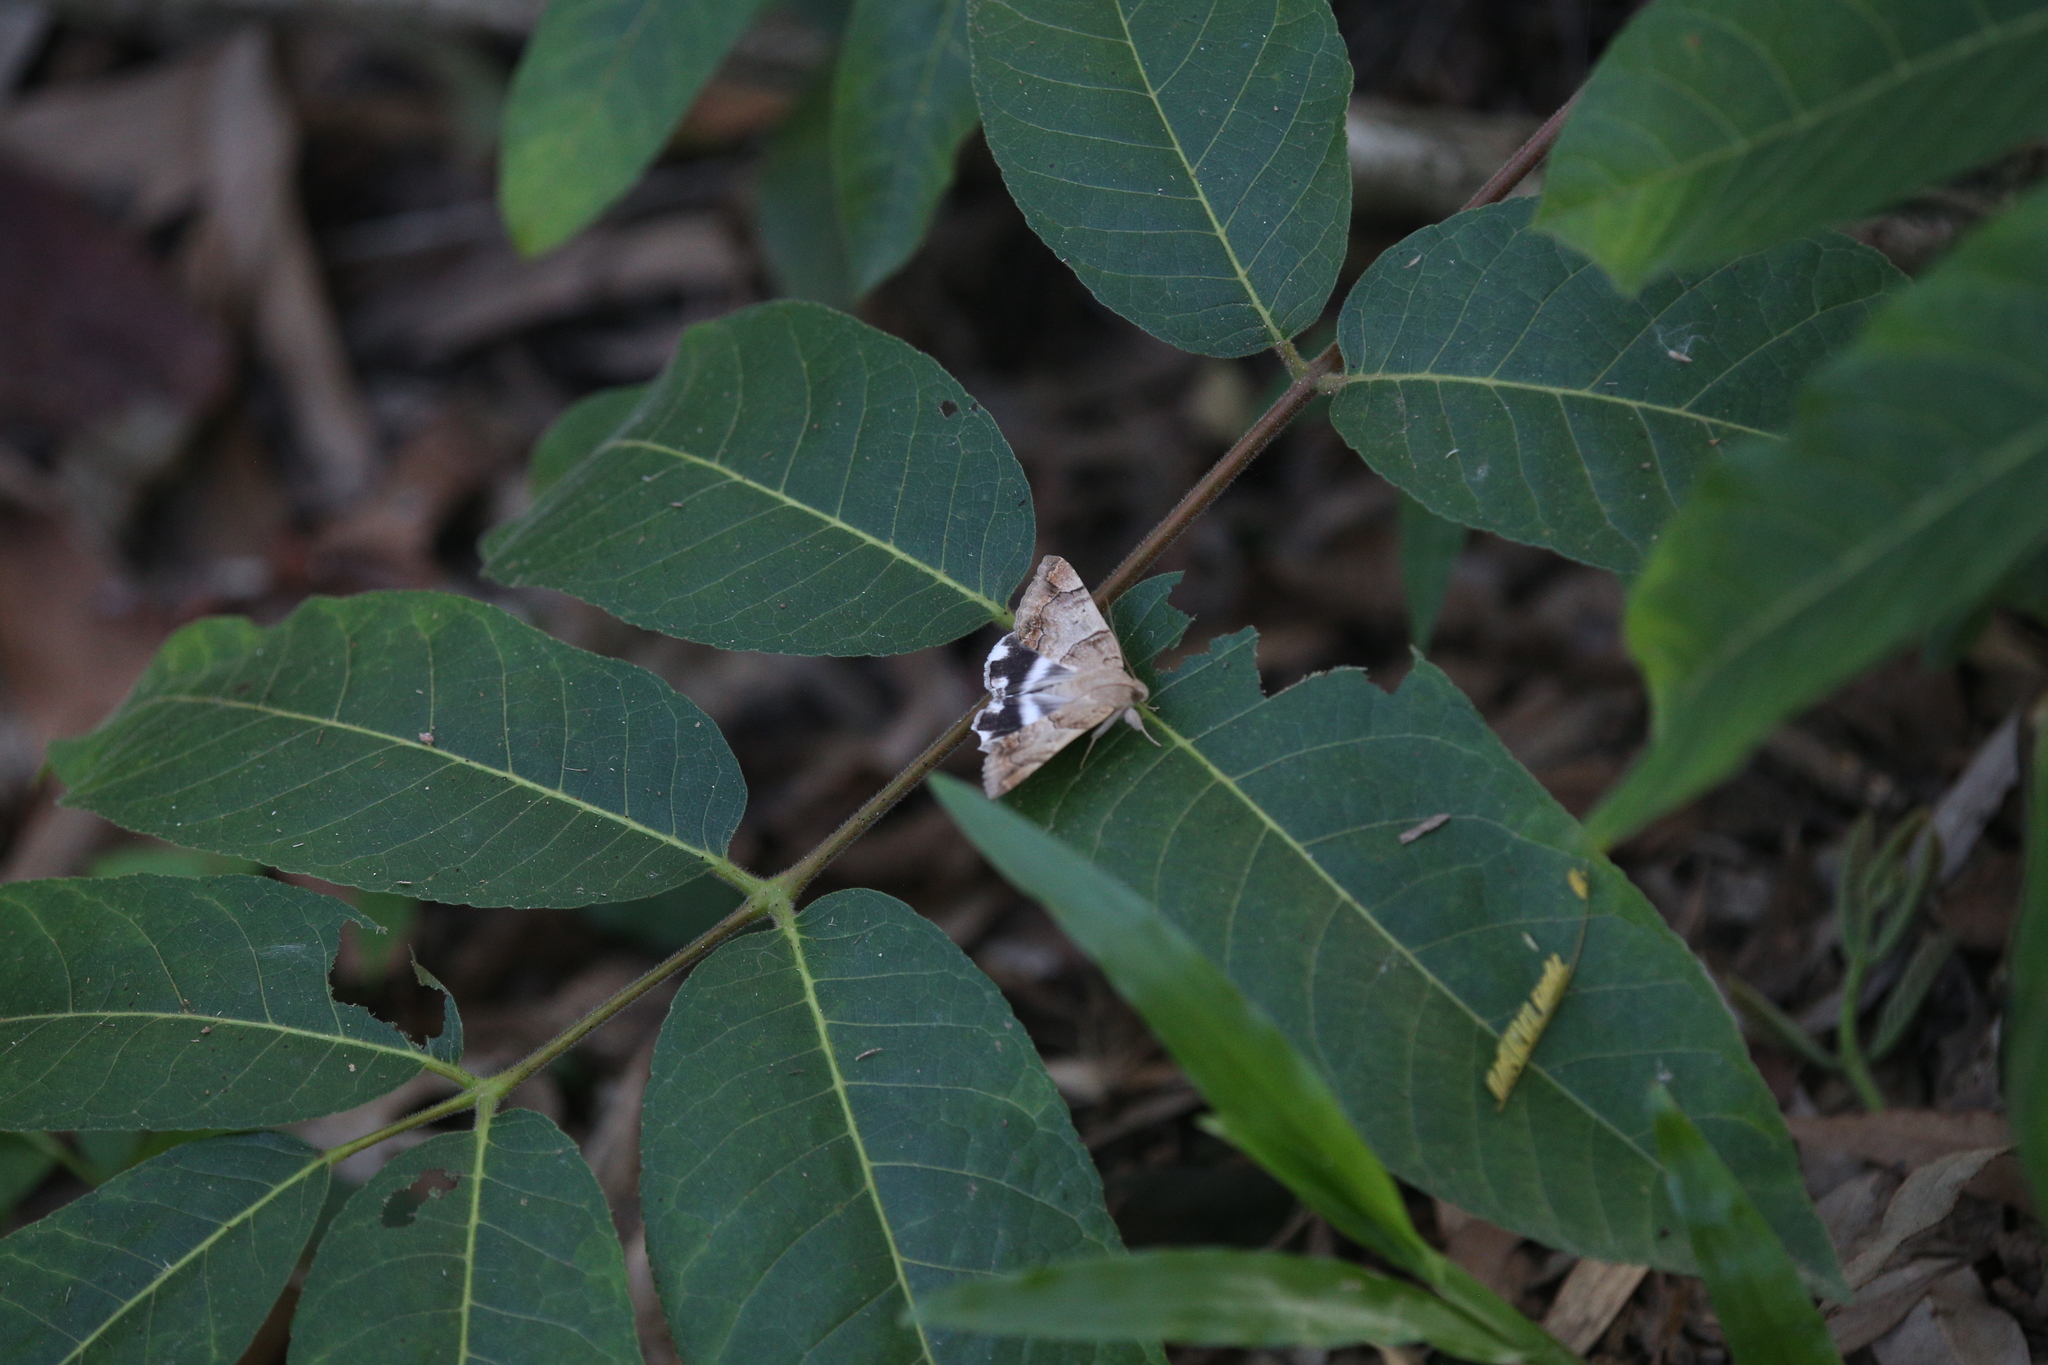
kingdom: Animalia
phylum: Arthropoda
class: Insecta
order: Lepidoptera
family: Erebidae
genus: Achaea
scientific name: Achaea janata
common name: Croton caterpillar
